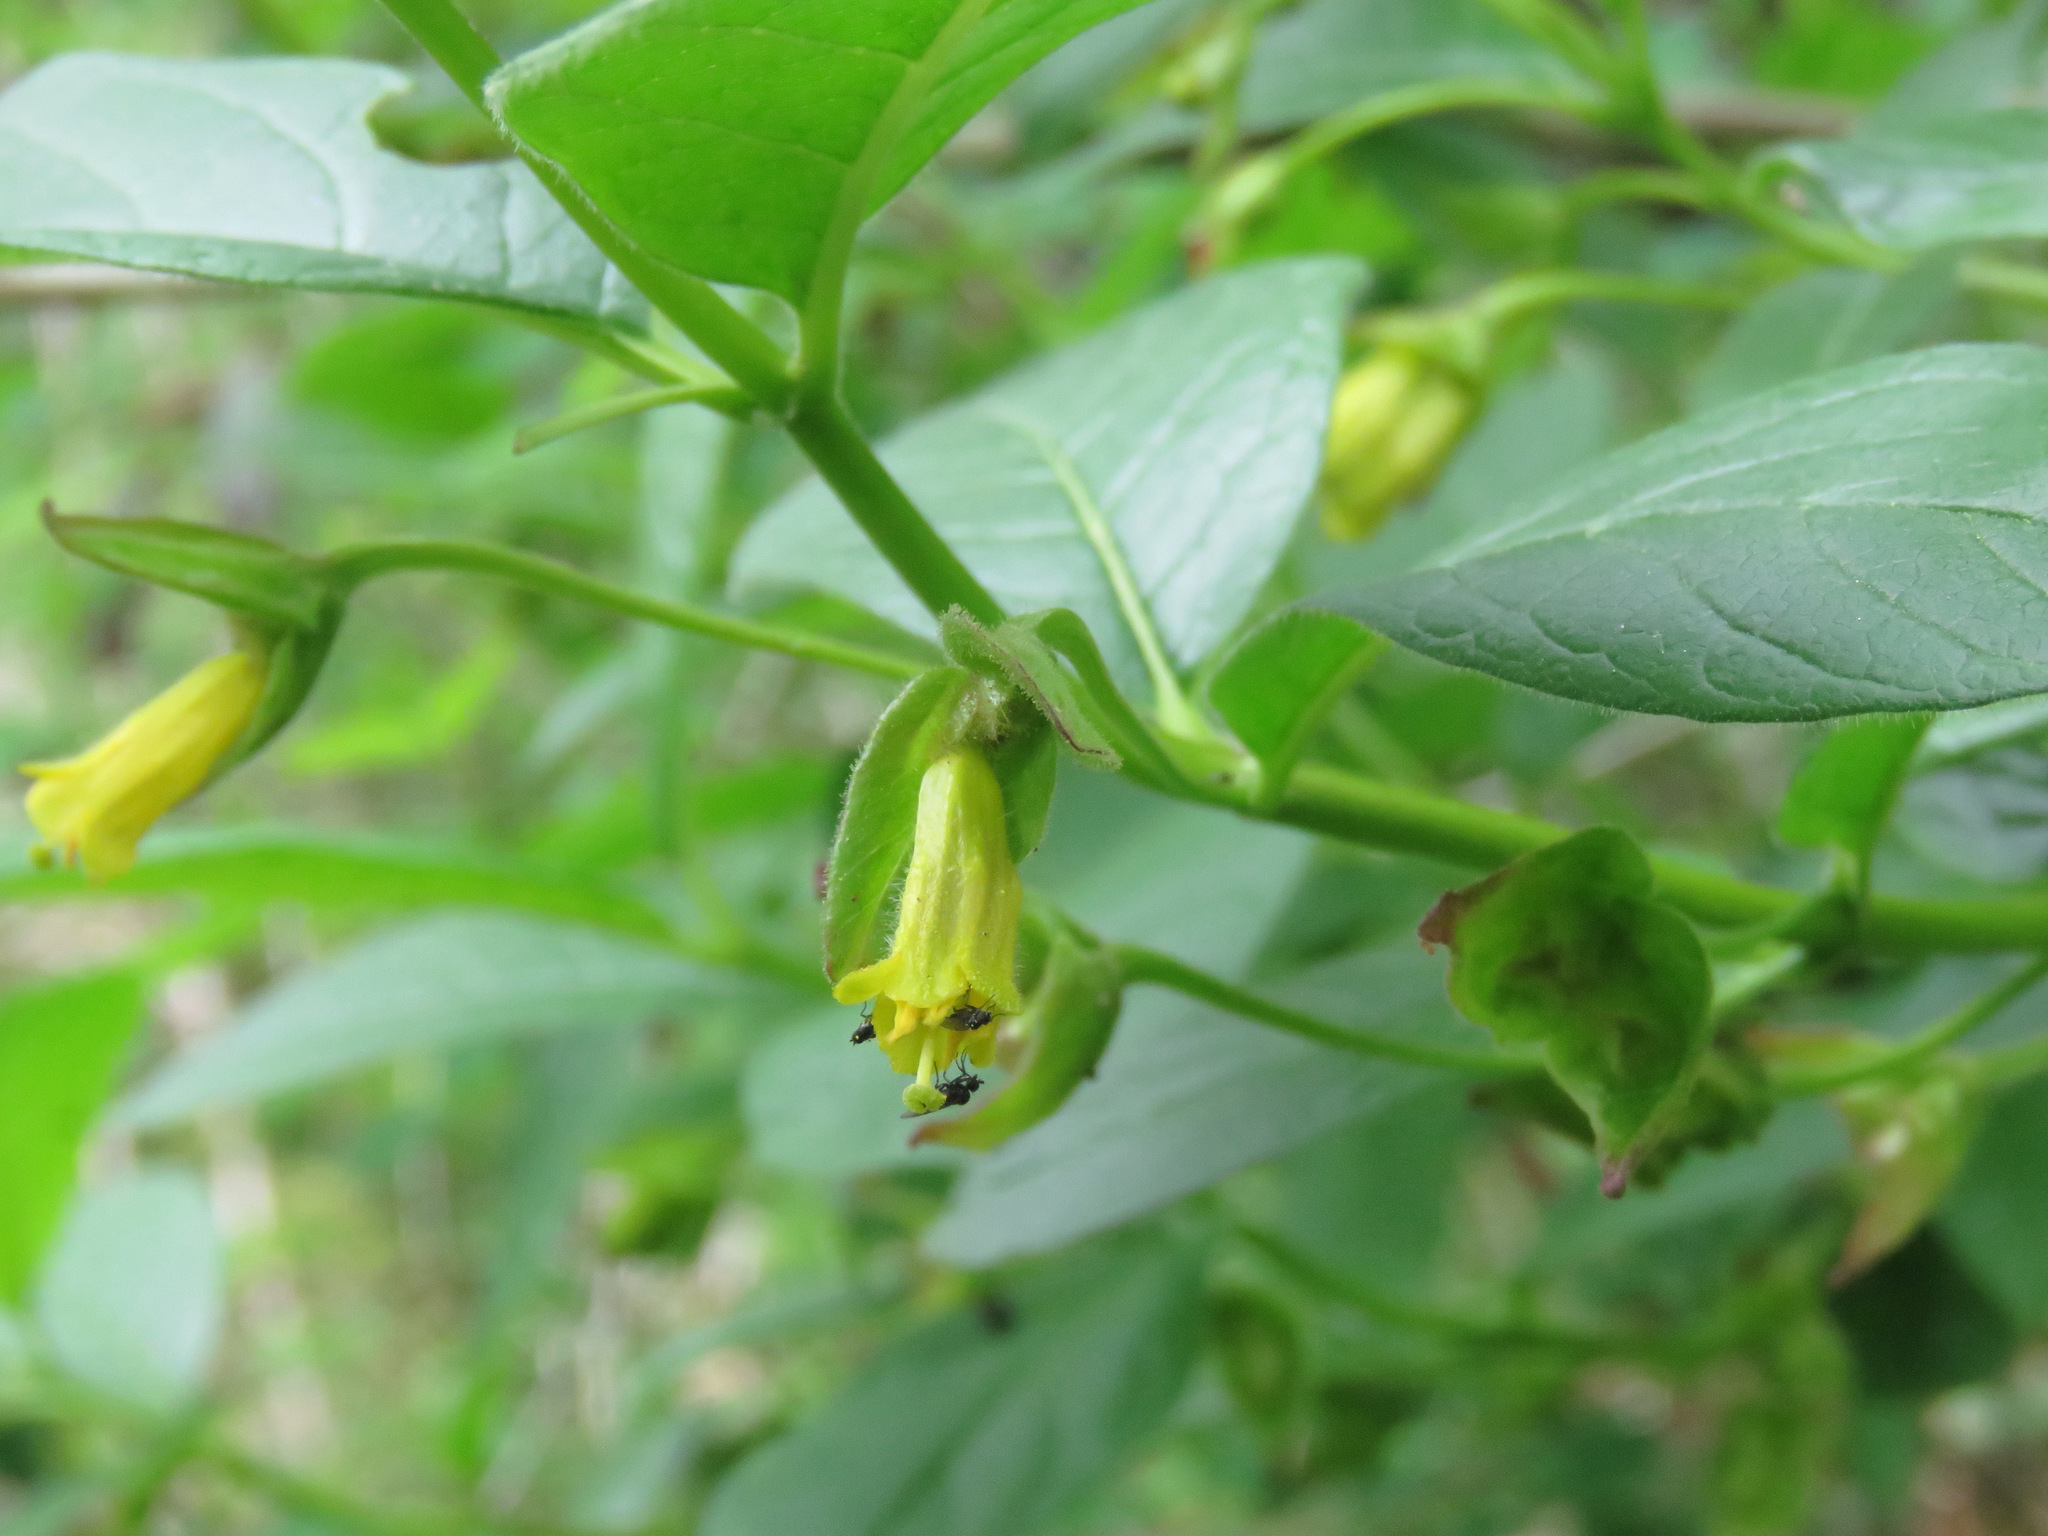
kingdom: Plantae
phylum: Tracheophyta
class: Magnoliopsida
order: Dipsacales
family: Caprifoliaceae
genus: Lonicera
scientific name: Lonicera involucrata
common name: Californian honeysuckle
